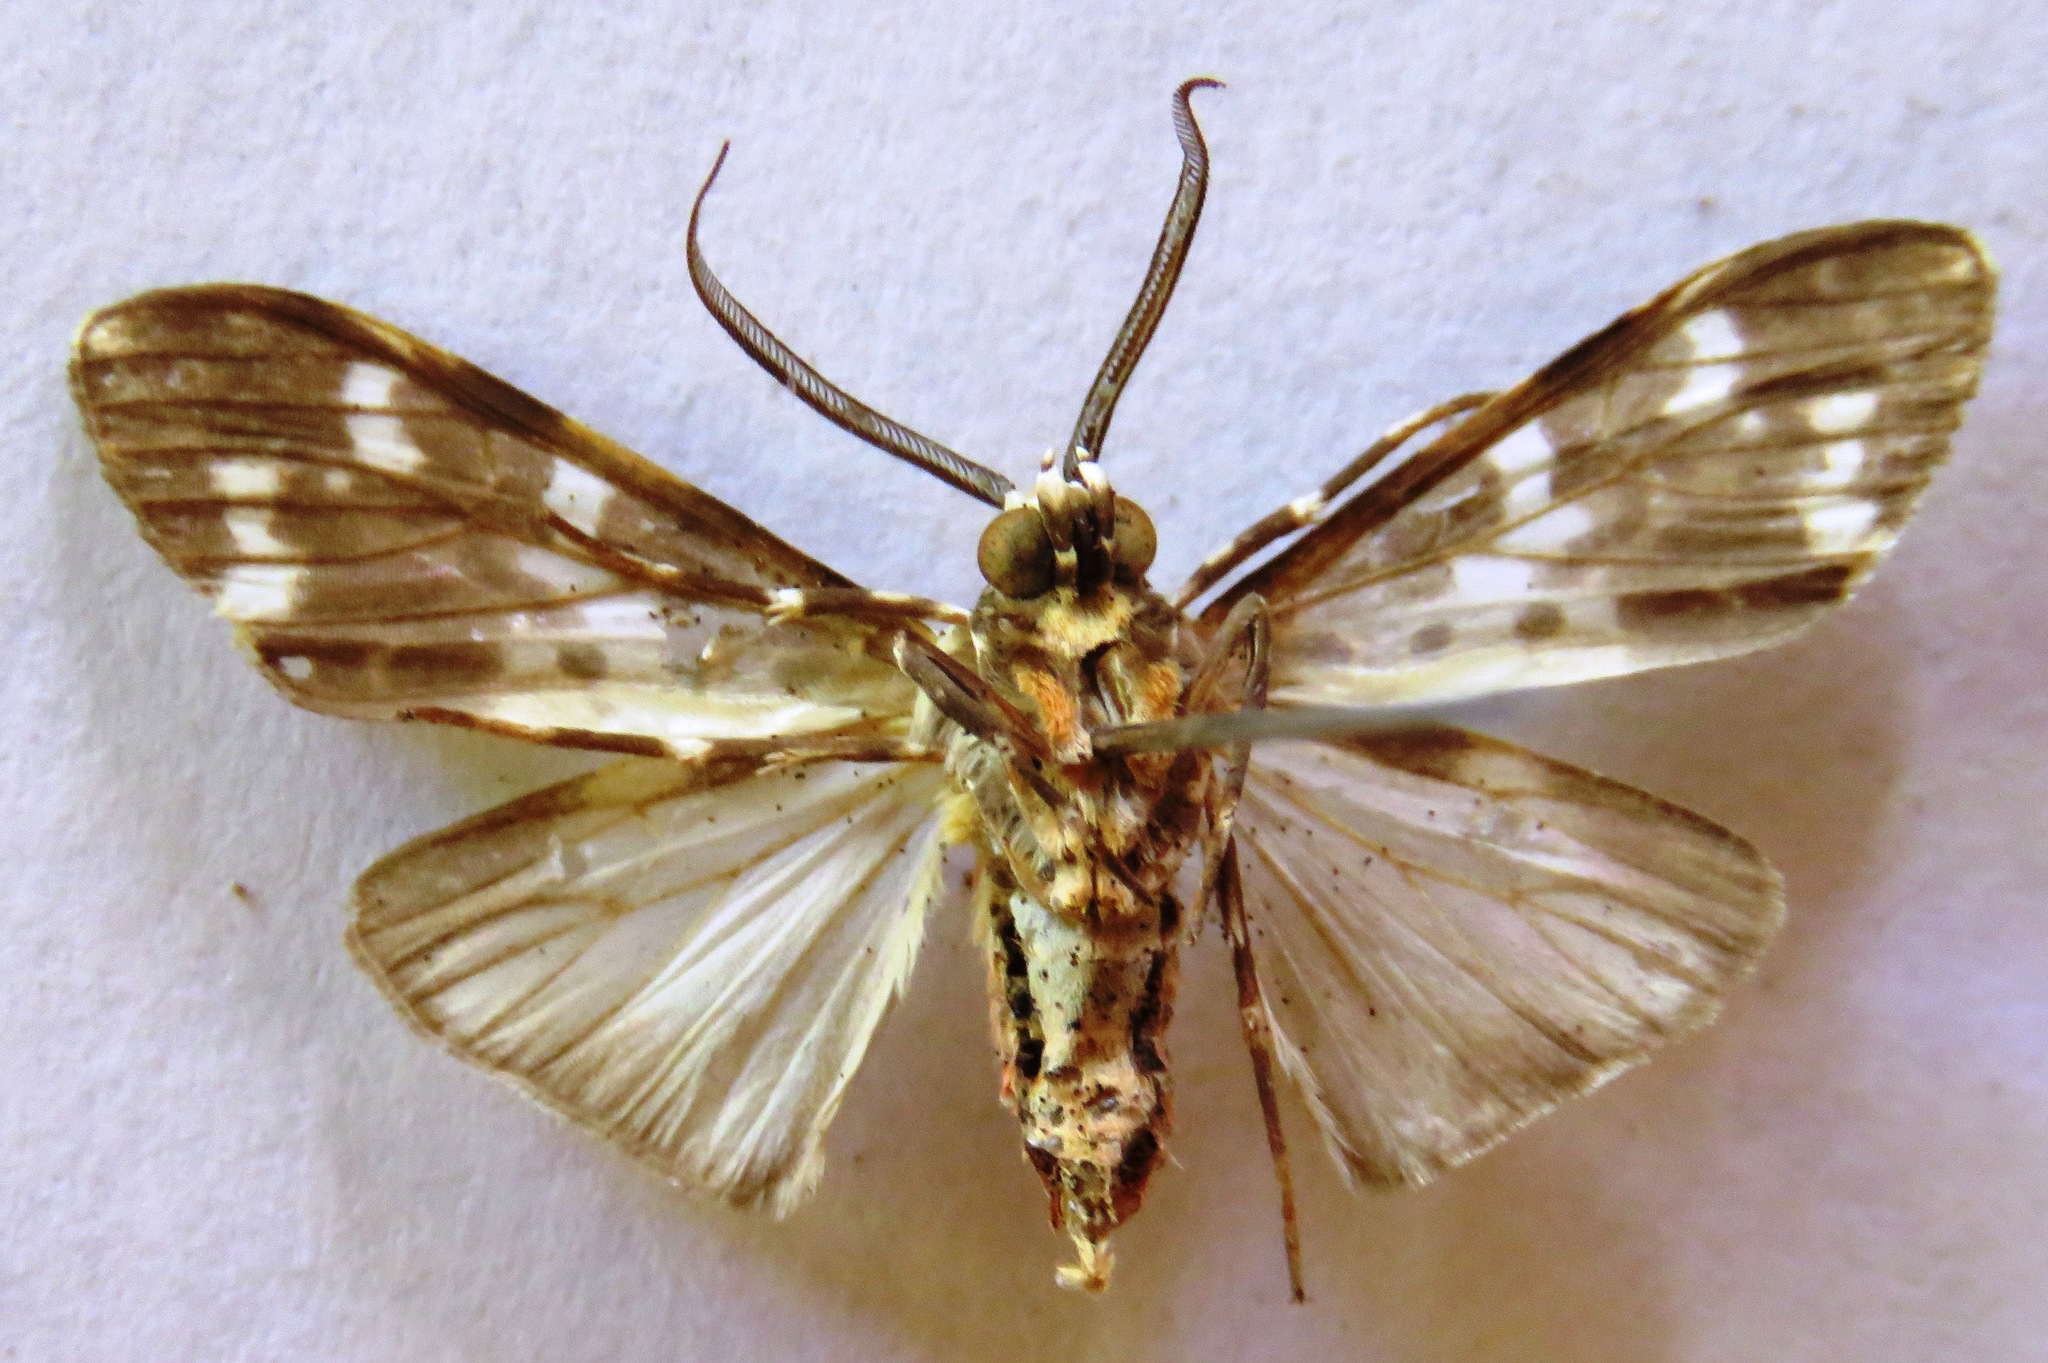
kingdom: Animalia
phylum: Arthropoda
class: Insecta
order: Lepidoptera
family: Erebidae
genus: Eucereon
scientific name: Eucereon rosina
